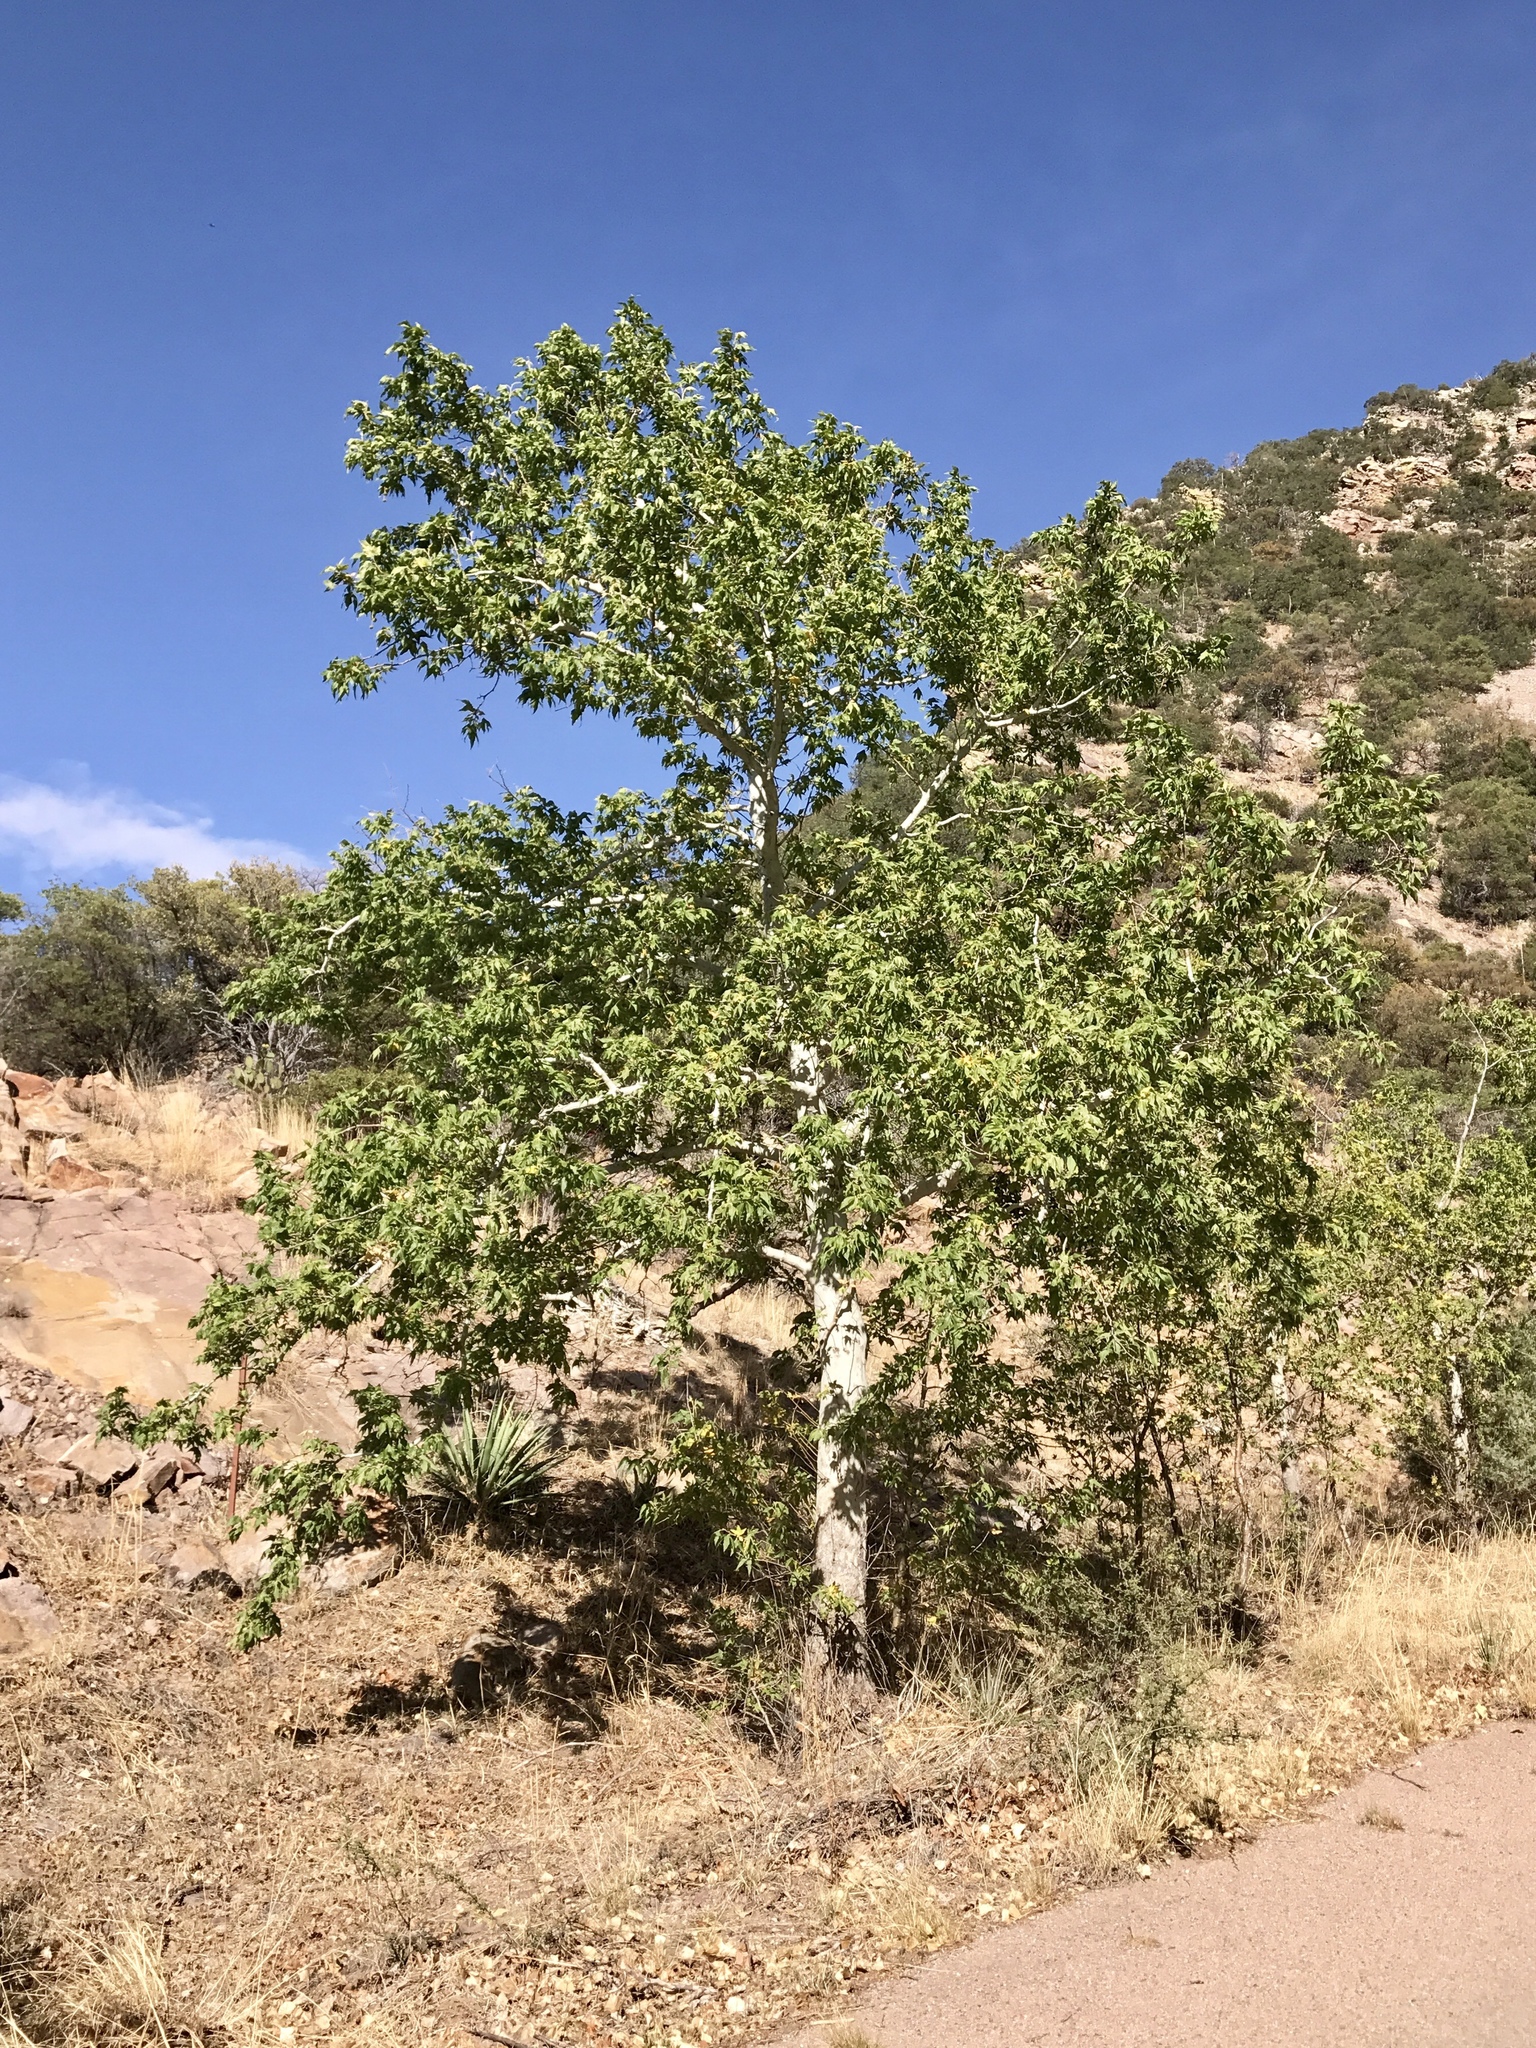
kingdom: Plantae
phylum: Tracheophyta
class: Magnoliopsida
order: Proteales
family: Platanaceae
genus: Platanus
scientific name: Platanus wrightii
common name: Arizona sycamore
